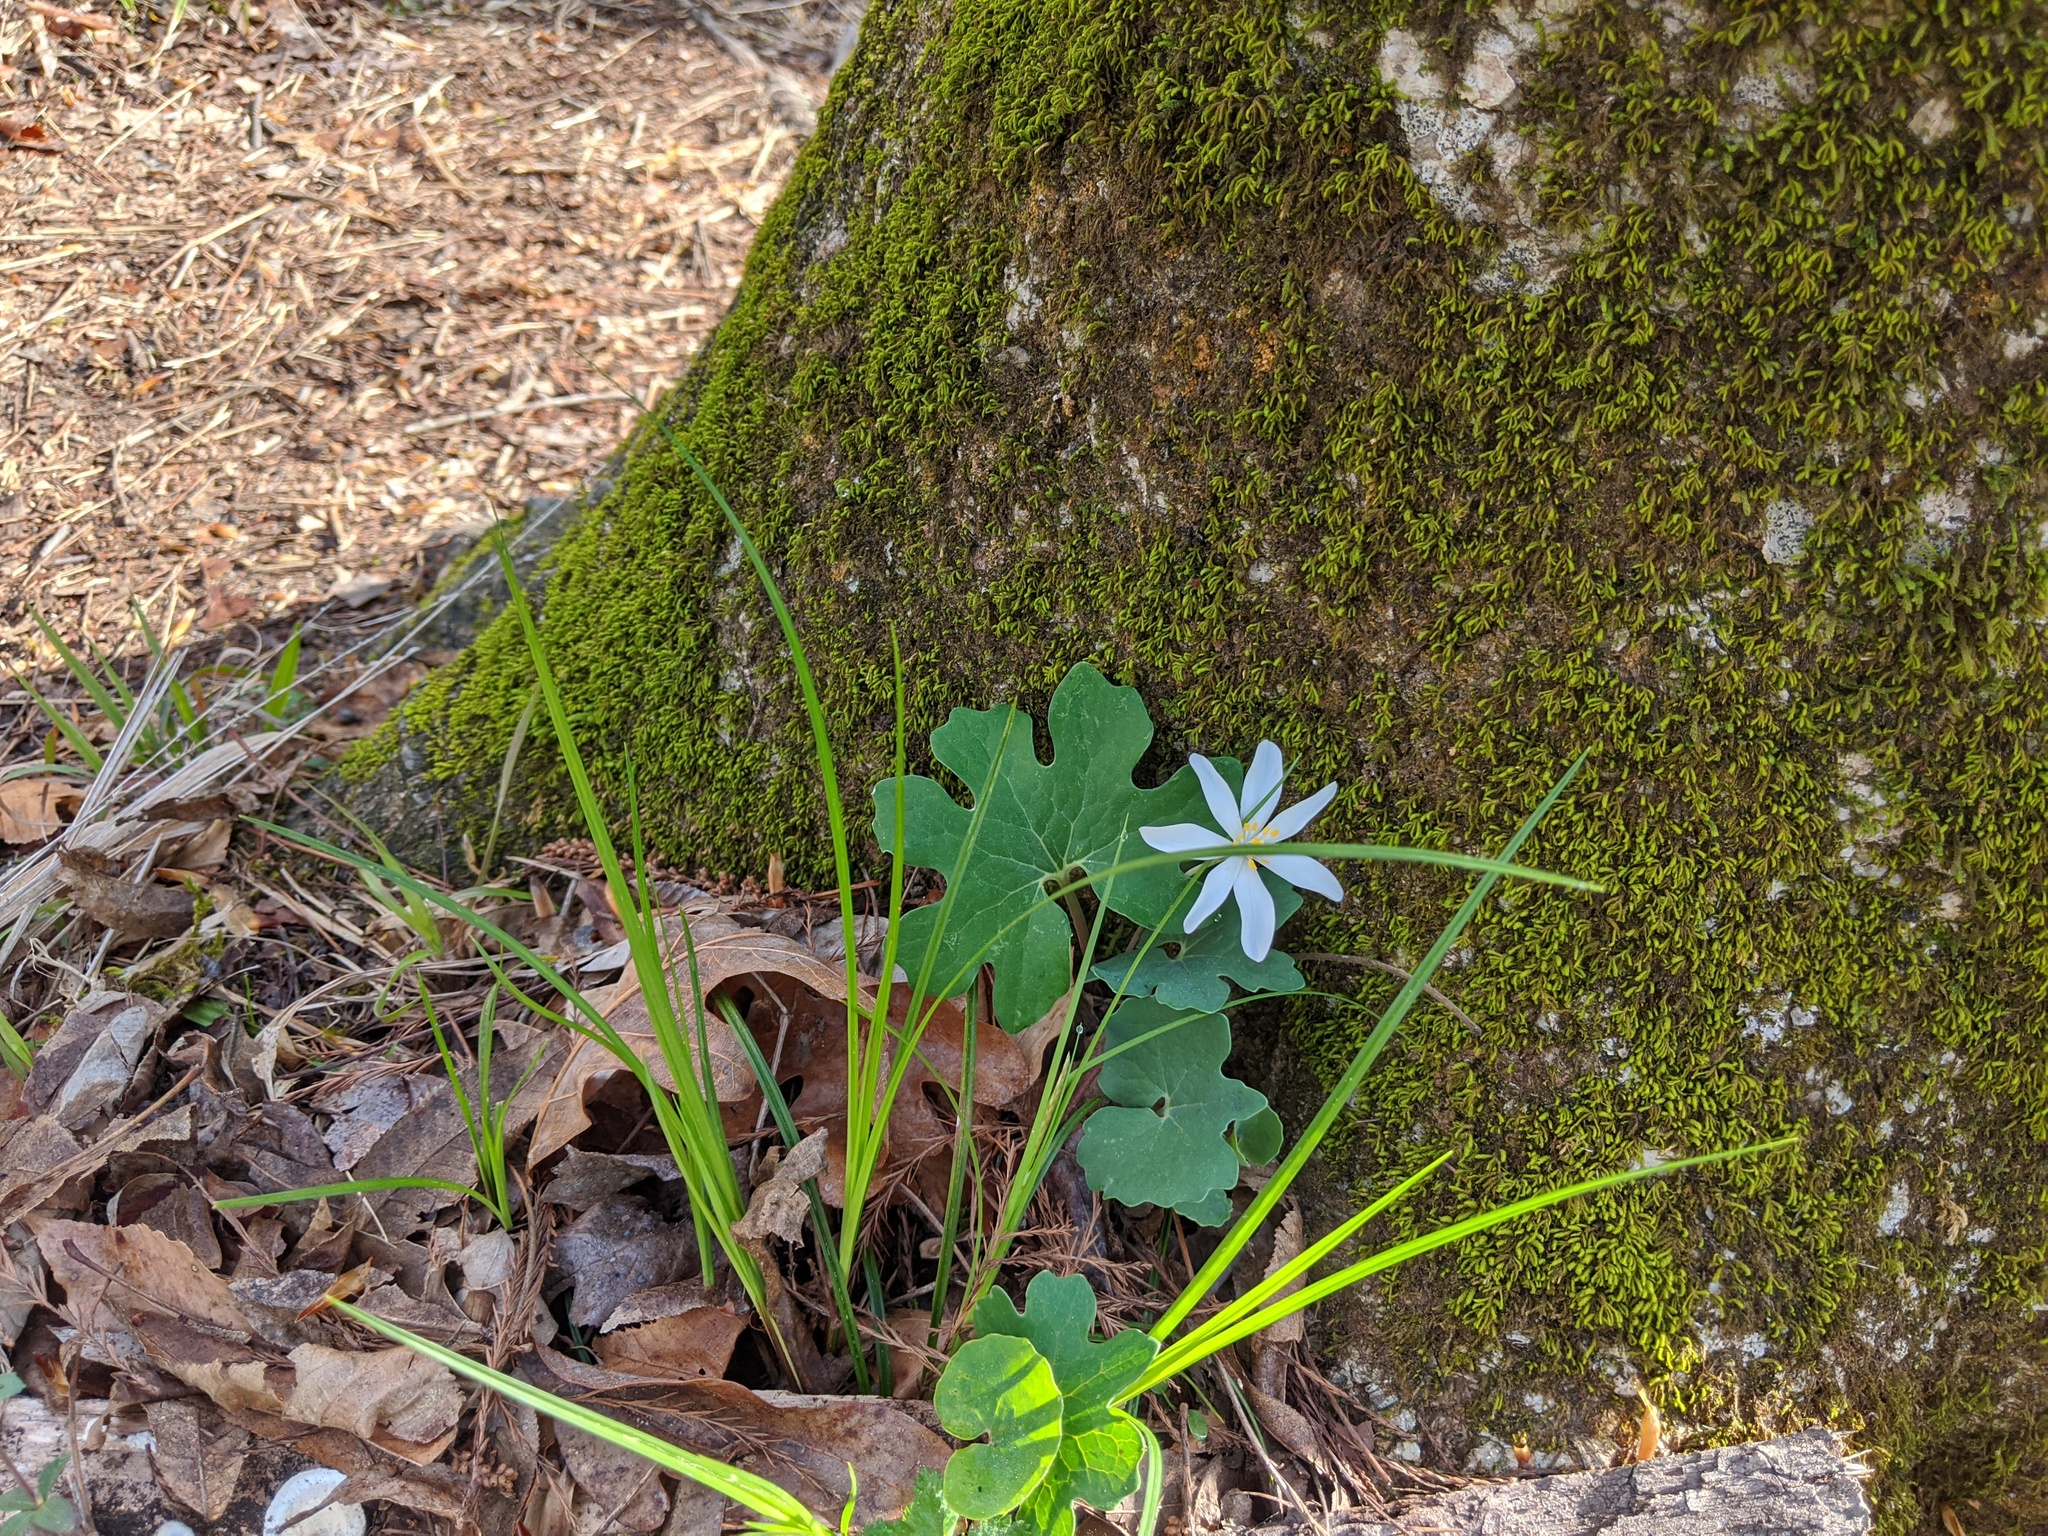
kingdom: Plantae
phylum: Tracheophyta
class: Magnoliopsida
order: Ranunculales
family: Papaveraceae
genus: Sanguinaria
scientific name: Sanguinaria canadensis
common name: Bloodroot
